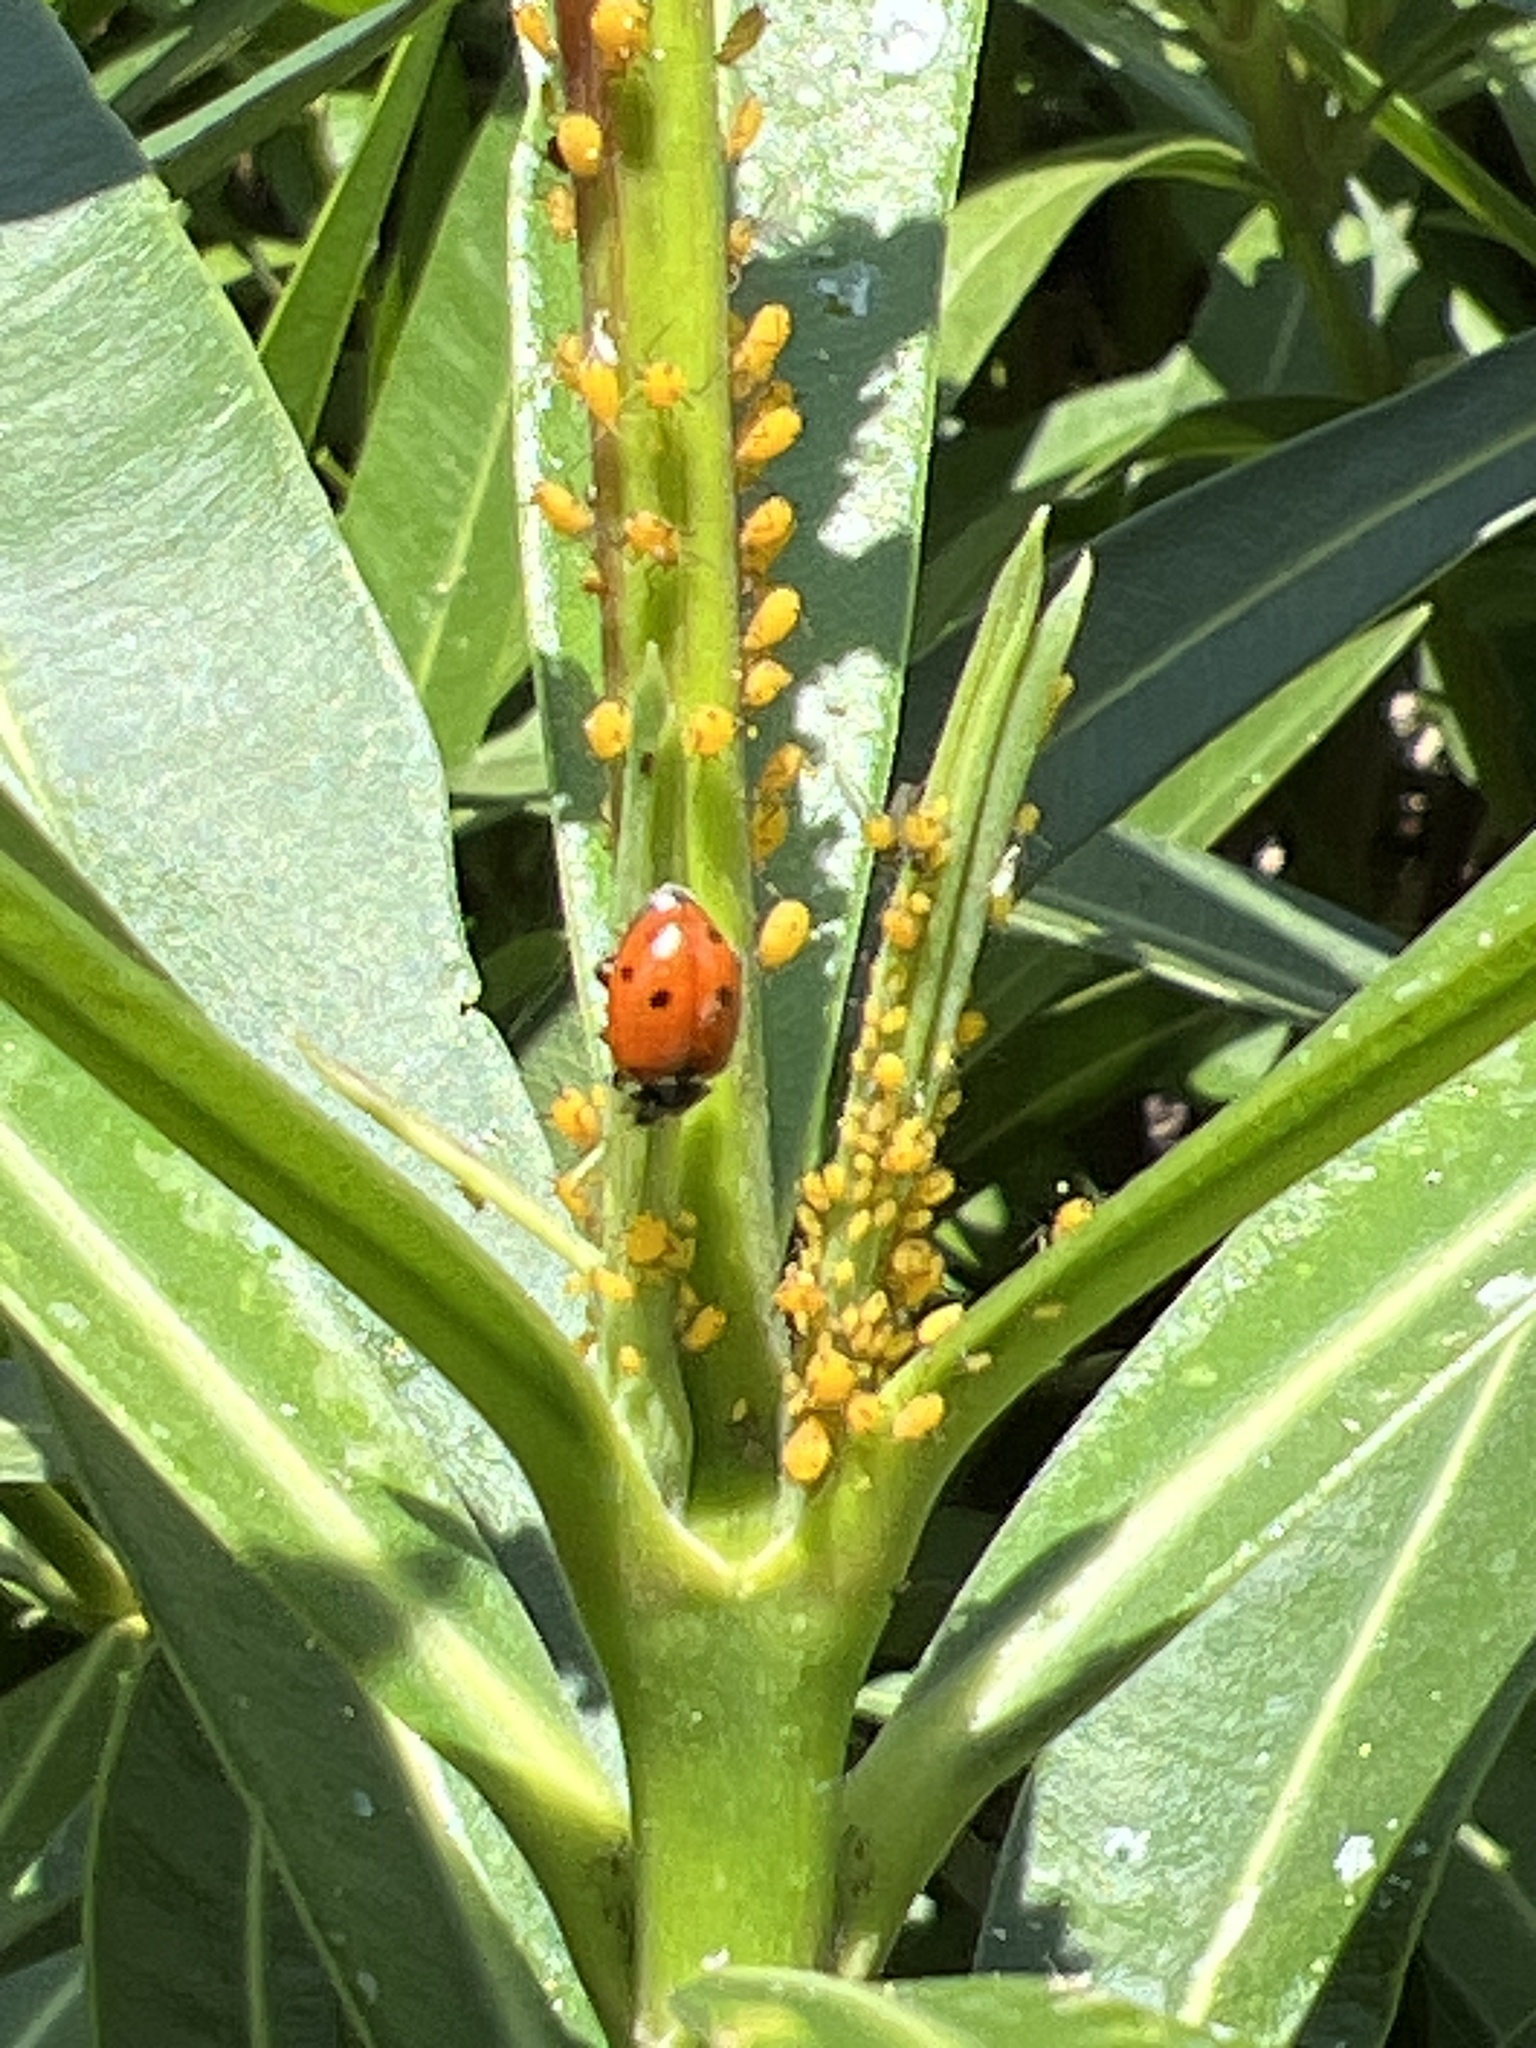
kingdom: Animalia
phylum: Arthropoda
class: Insecta
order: Coleoptera
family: Coccinellidae
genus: Hippodamia
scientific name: Hippodamia variegata
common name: Ladybird beetle
